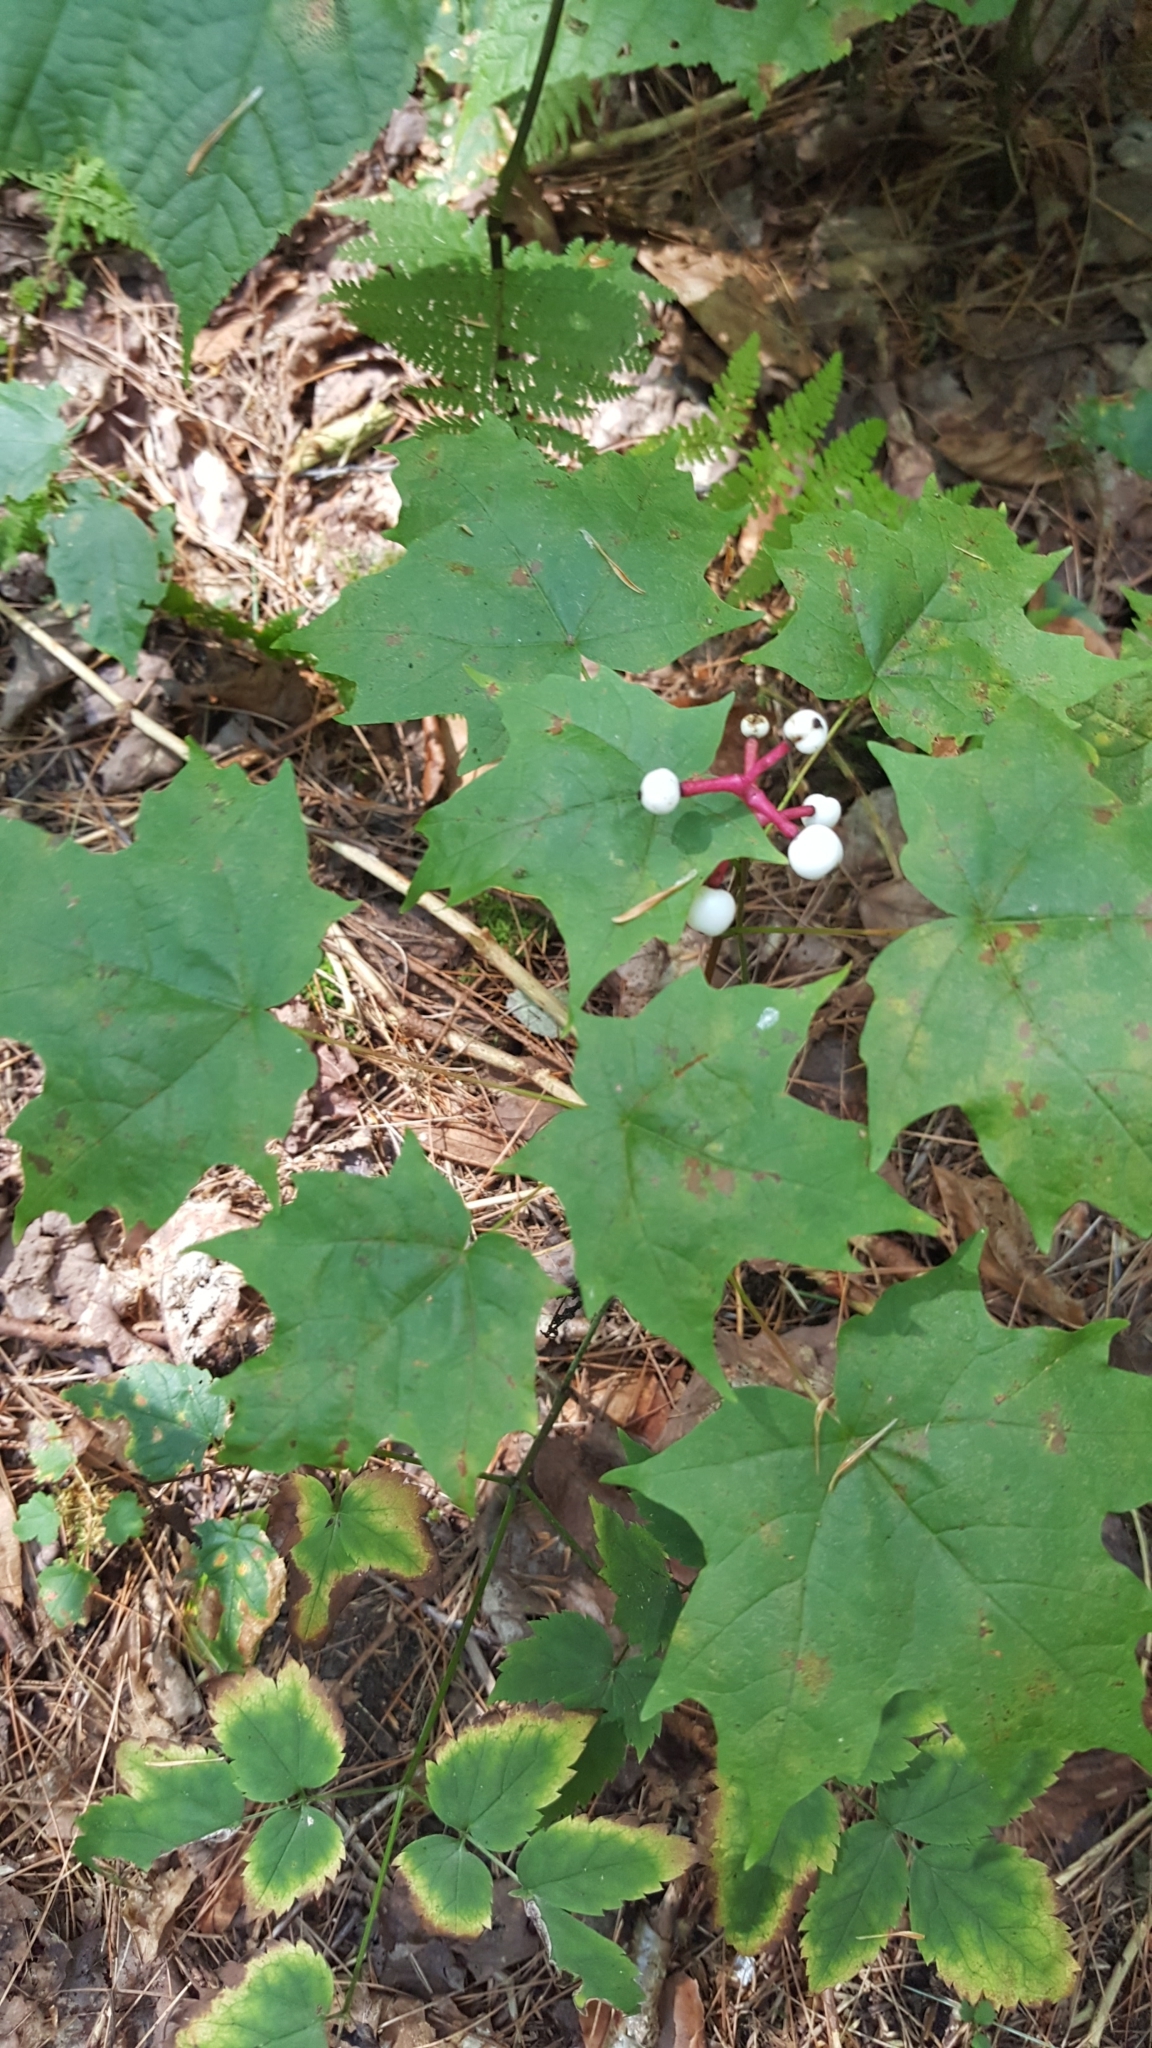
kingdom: Plantae
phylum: Tracheophyta
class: Magnoliopsida
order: Ranunculales
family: Ranunculaceae
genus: Actaea
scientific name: Actaea pachypoda
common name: Doll's-eyes
